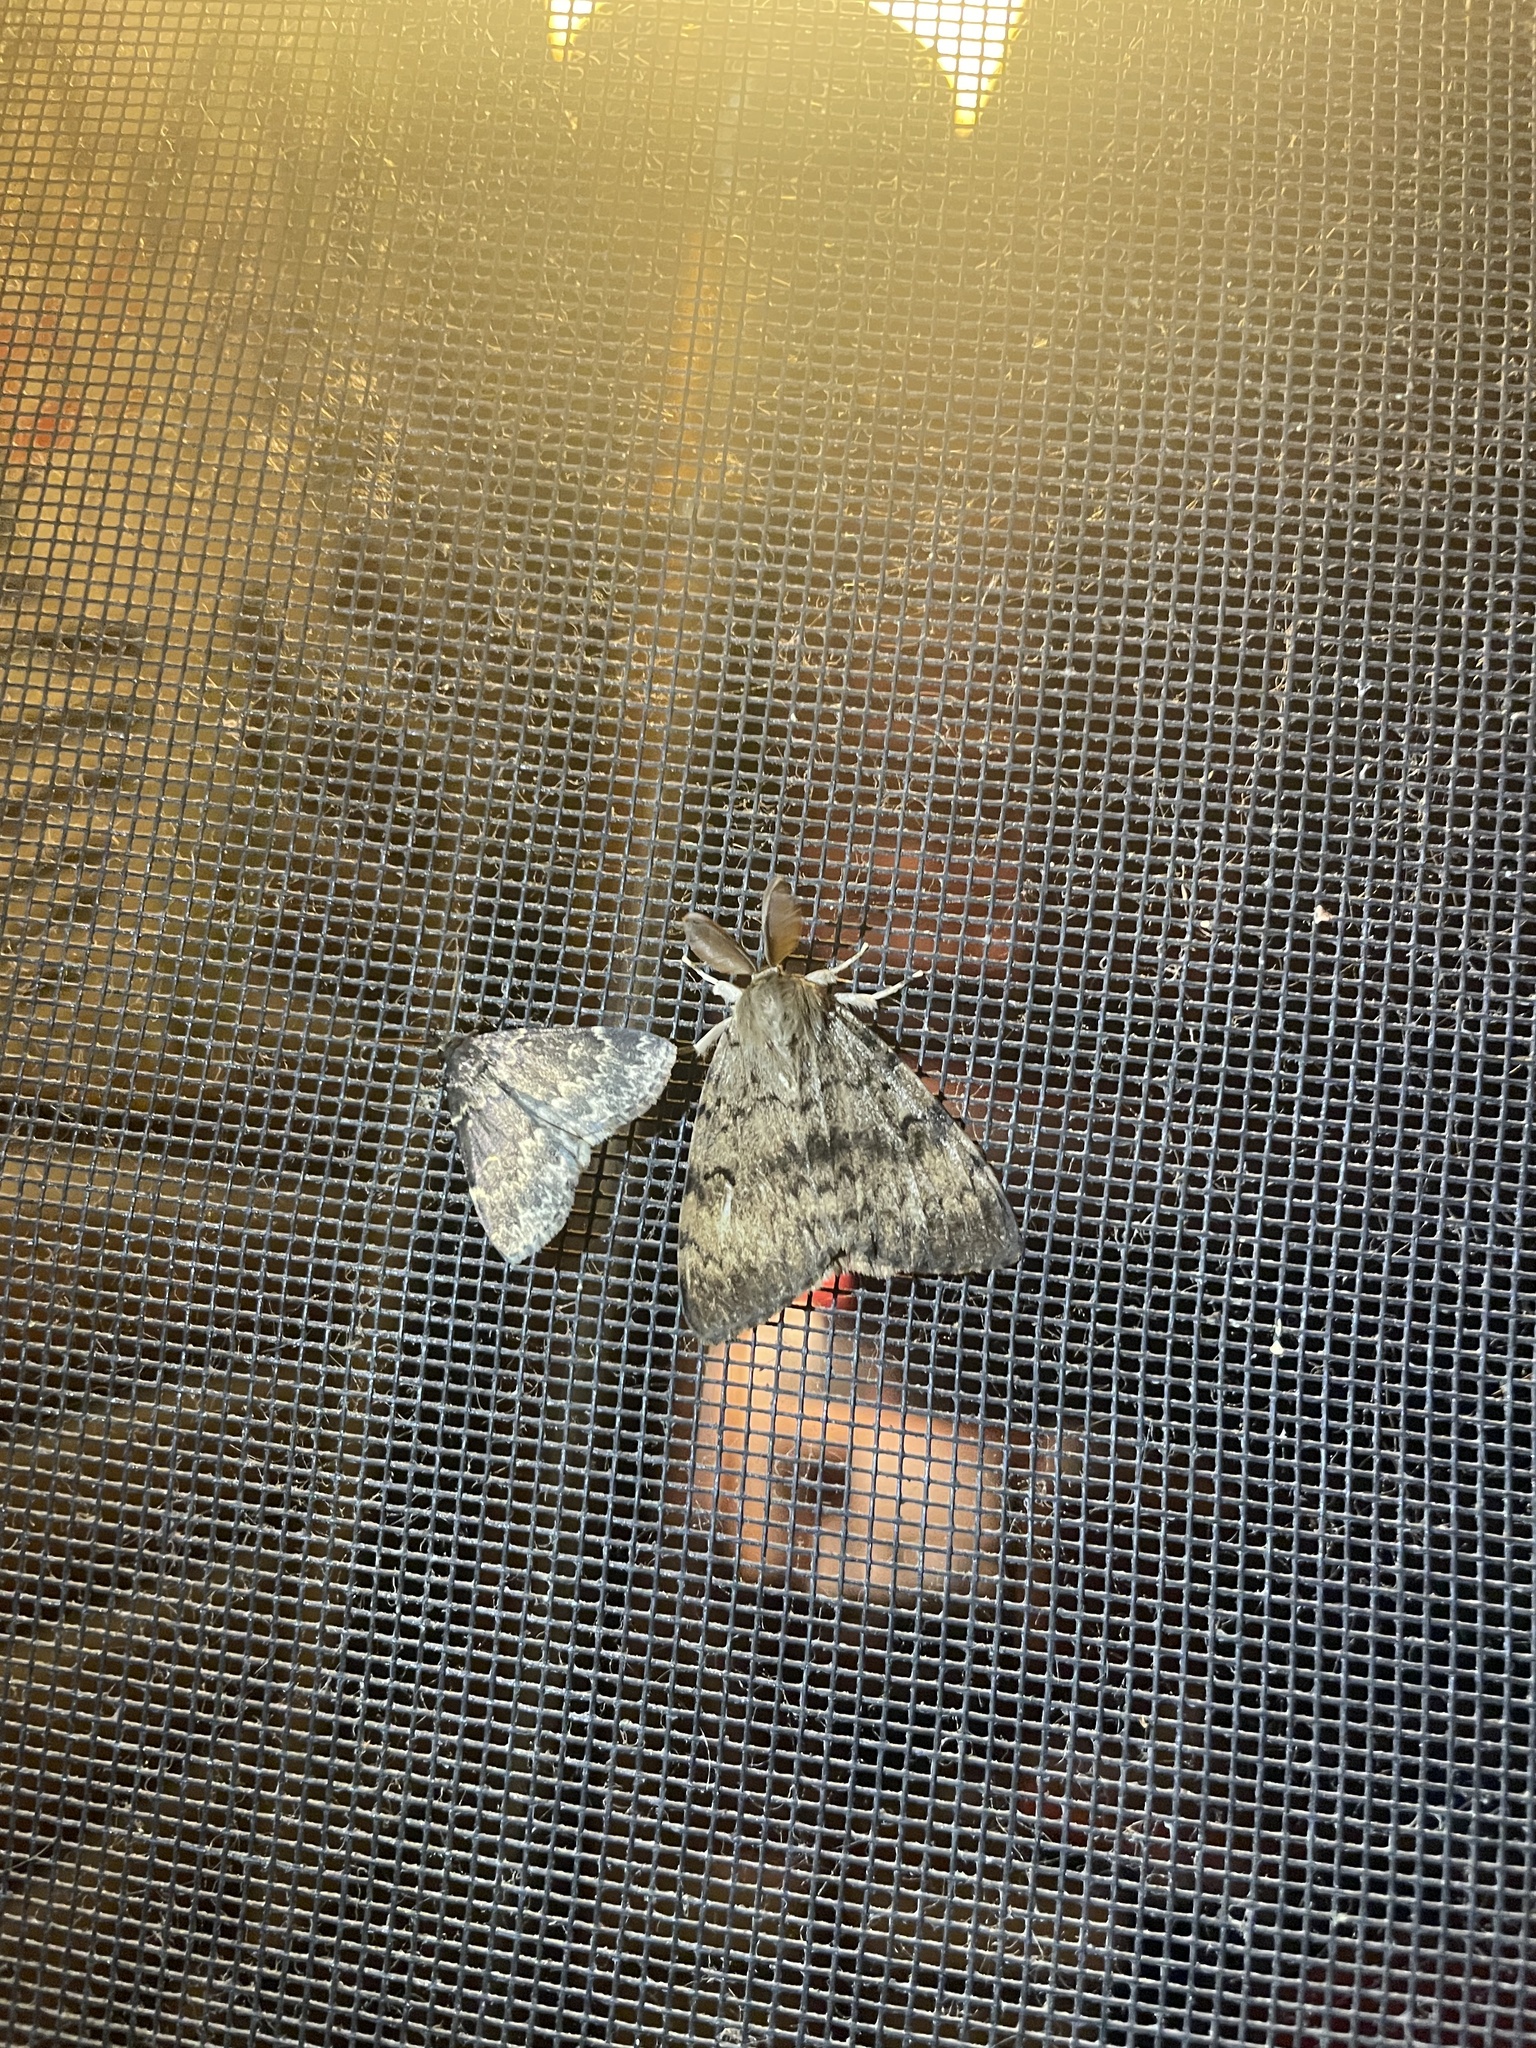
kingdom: Animalia
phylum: Arthropoda
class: Insecta
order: Lepidoptera
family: Erebidae
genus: Lymantria
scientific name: Lymantria dispar
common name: Gypsy moth
